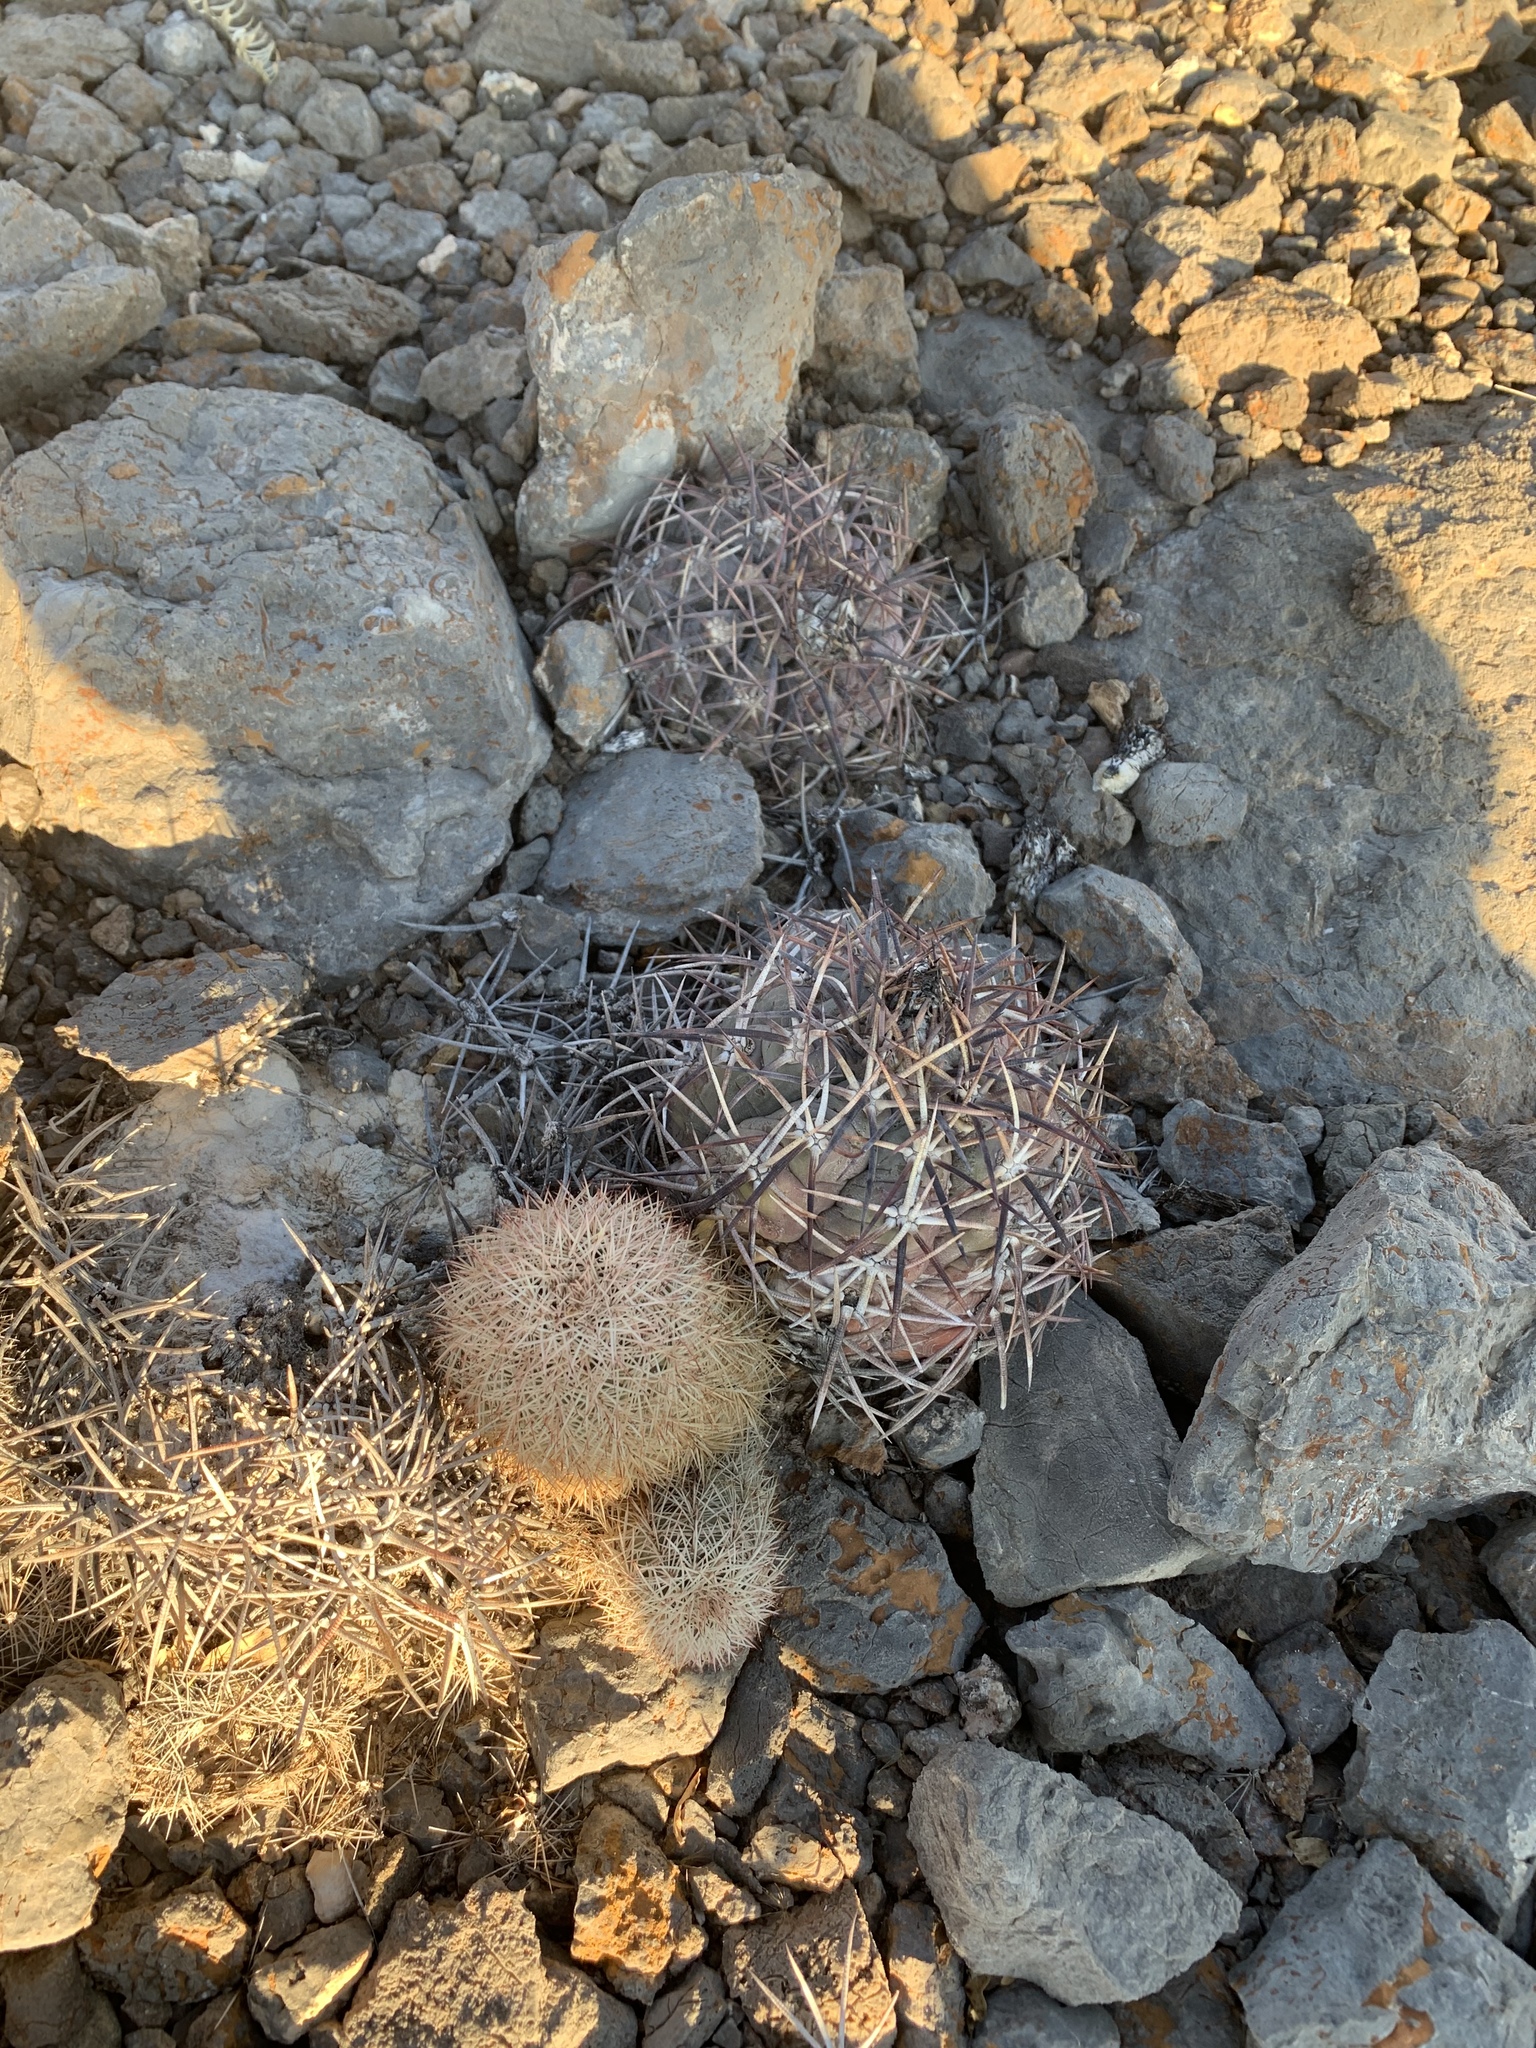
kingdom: Plantae
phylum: Tracheophyta
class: Magnoliopsida
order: Caryophyllales
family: Cactaceae
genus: Echinocactus
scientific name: Echinocactus horizonthalonius
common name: Devilshead
